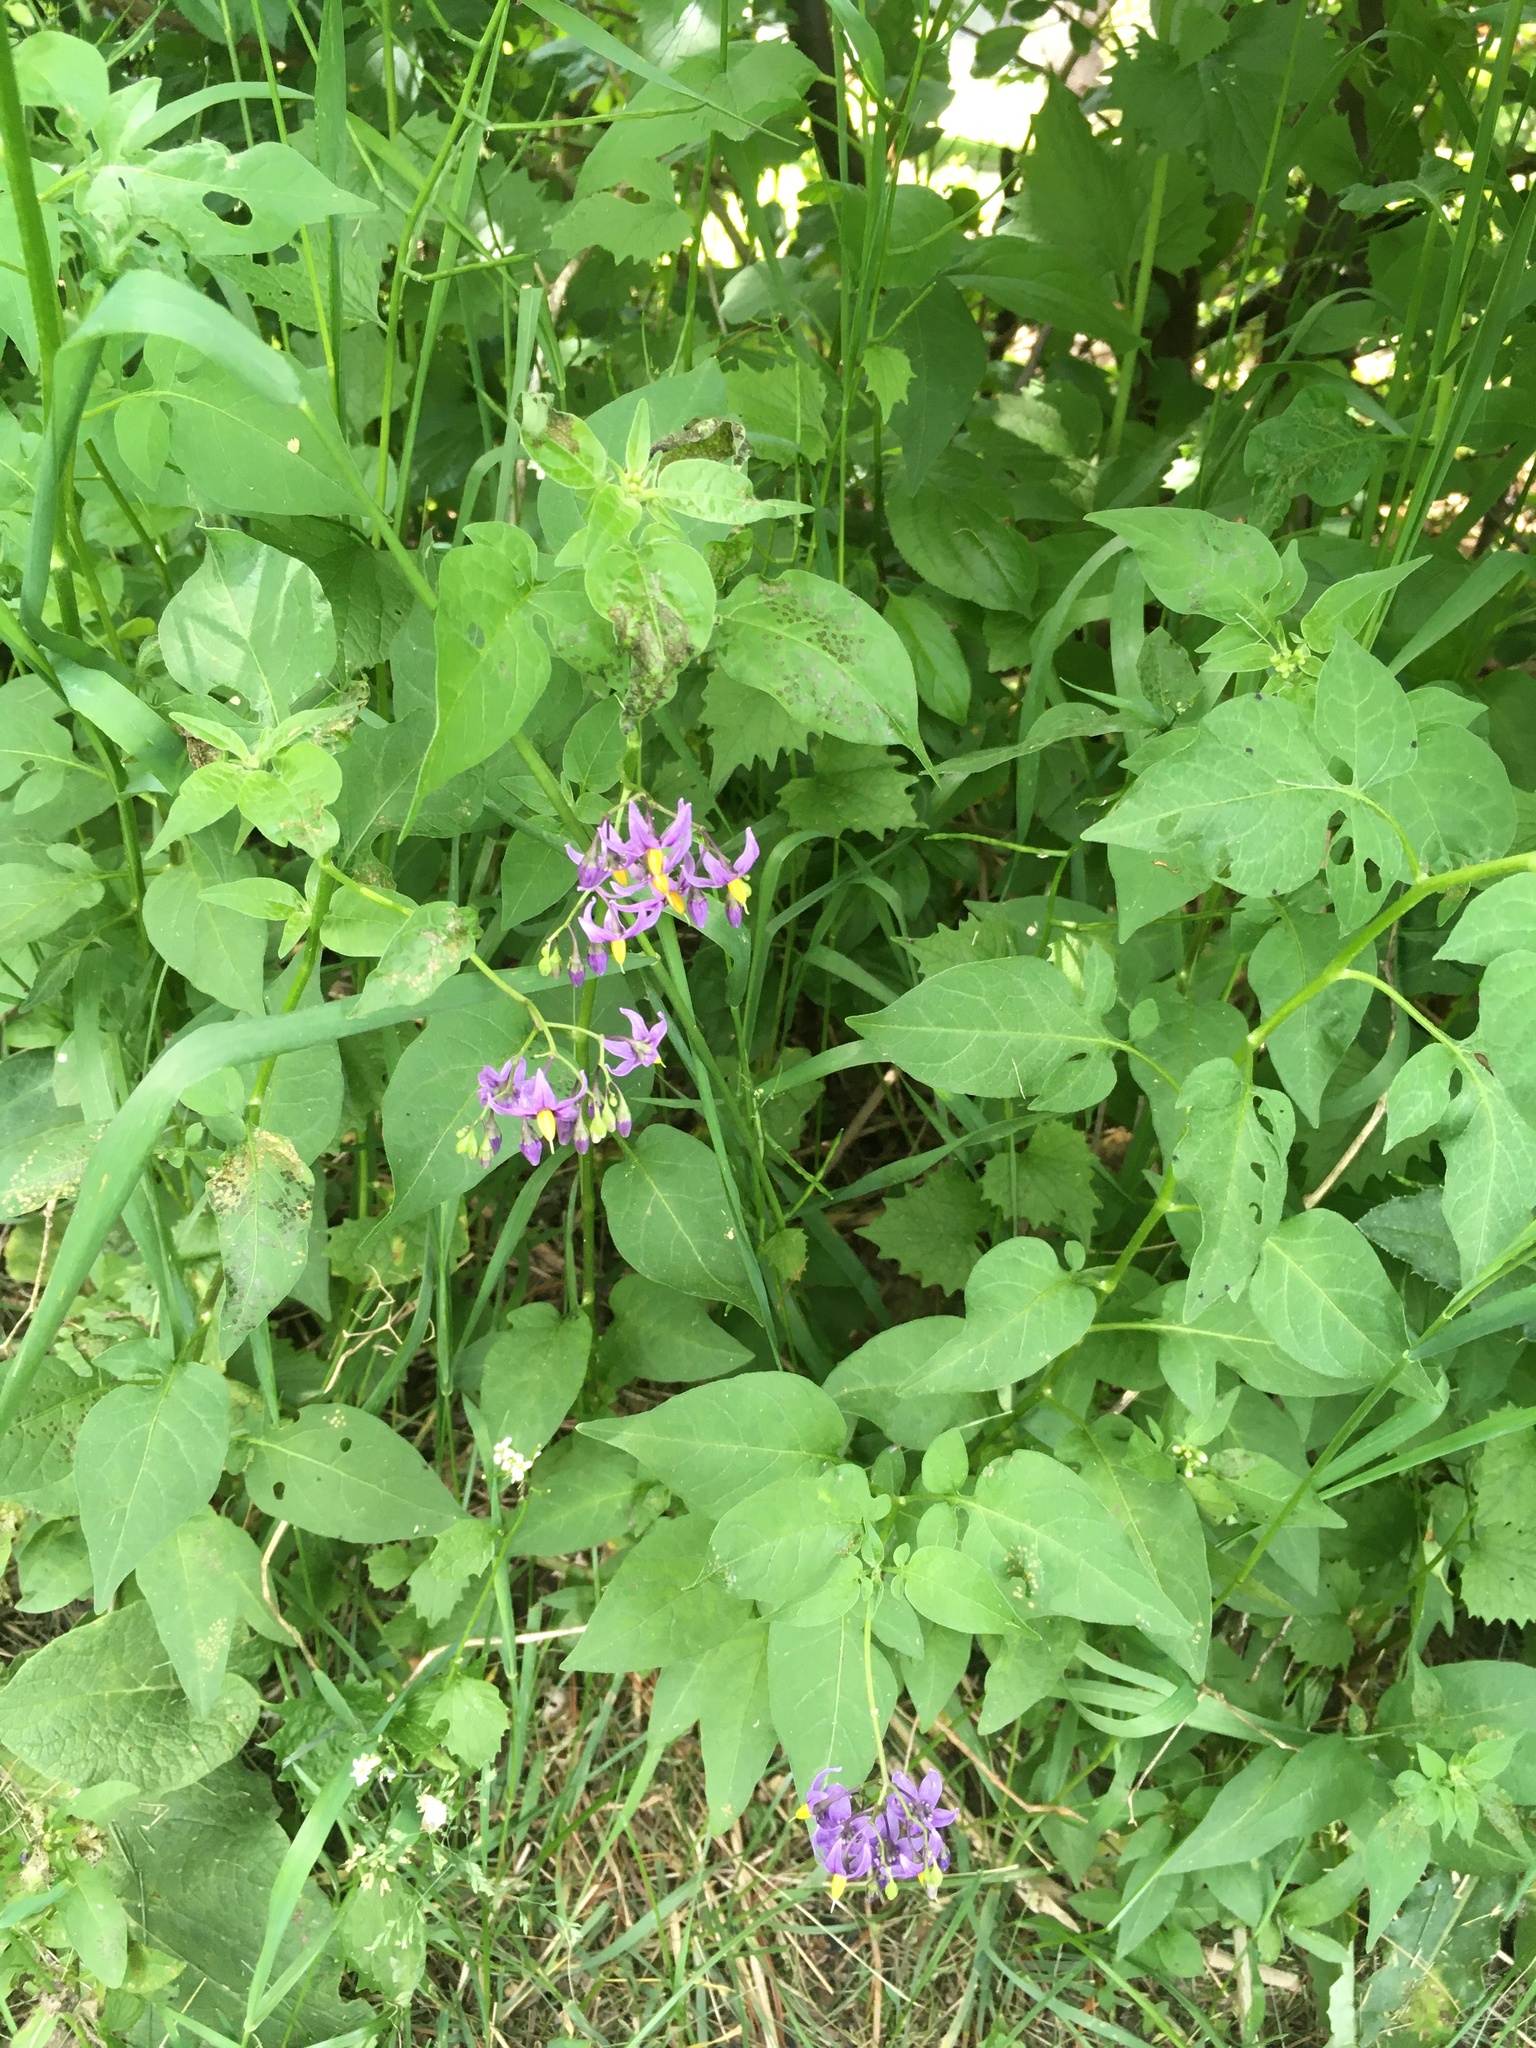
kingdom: Plantae
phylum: Tracheophyta
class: Magnoliopsida
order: Solanales
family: Solanaceae
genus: Solanum
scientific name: Solanum dulcamara
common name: Climbing nightshade
